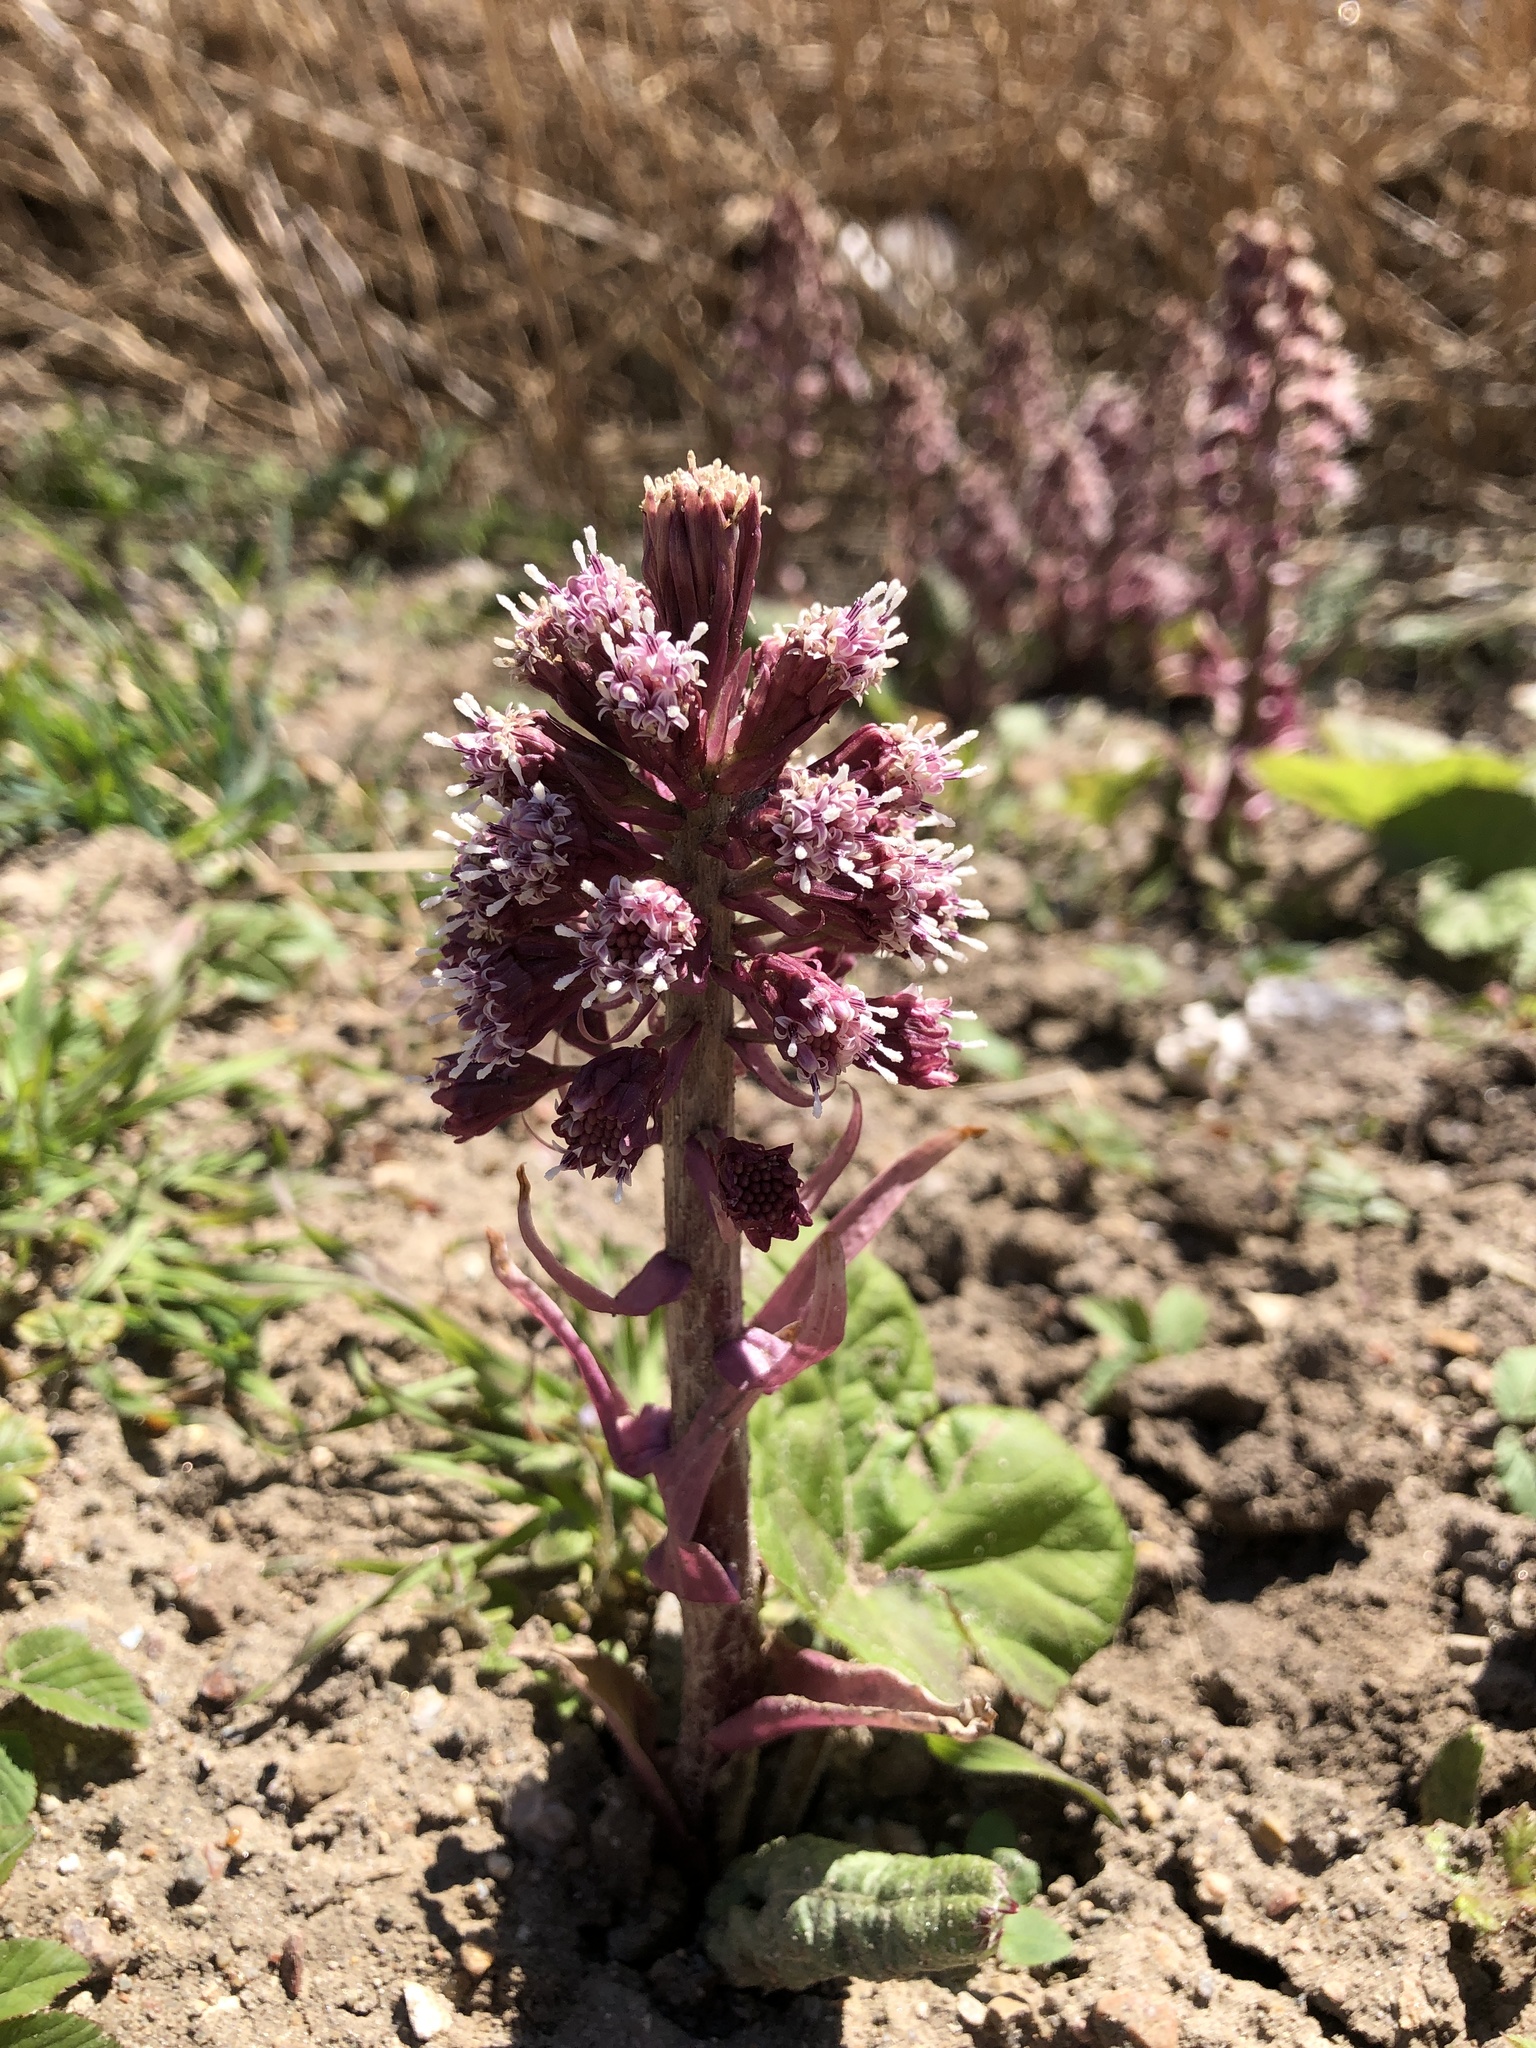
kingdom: Plantae
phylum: Tracheophyta
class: Magnoliopsida
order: Asterales
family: Asteraceae
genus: Petasites
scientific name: Petasites hybridus
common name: Butterbur
